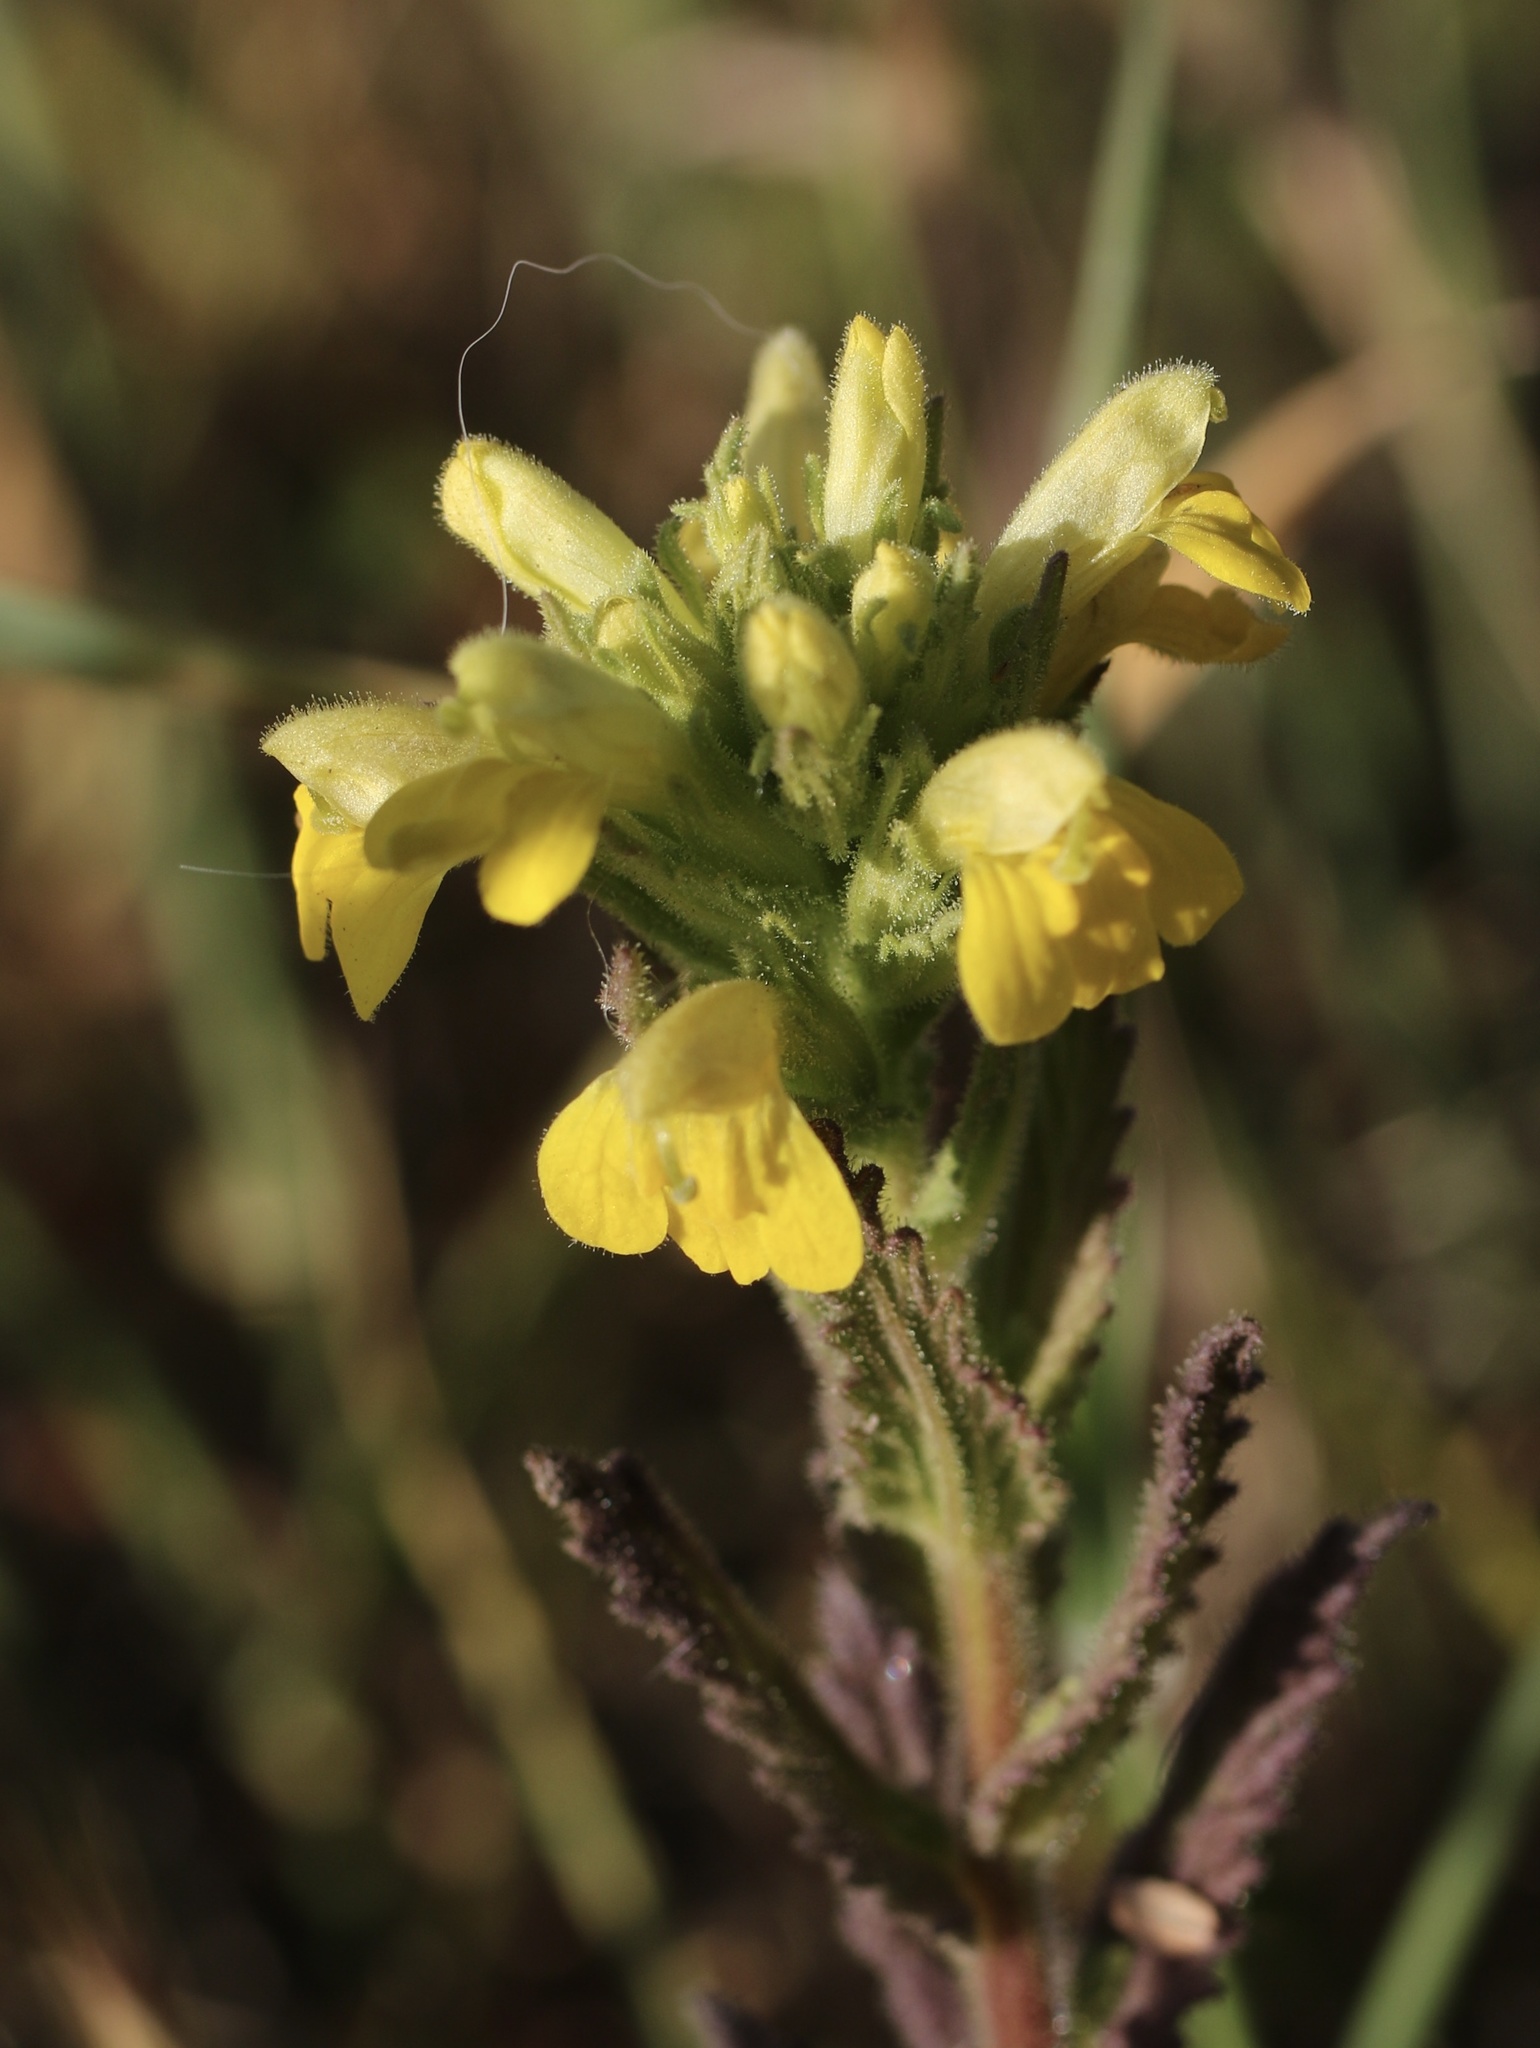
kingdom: Plantae
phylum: Tracheophyta
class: Magnoliopsida
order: Lamiales
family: Orobanchaceae
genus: Bellardia
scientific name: Bellardia viscosa
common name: Sticky parentucellia
